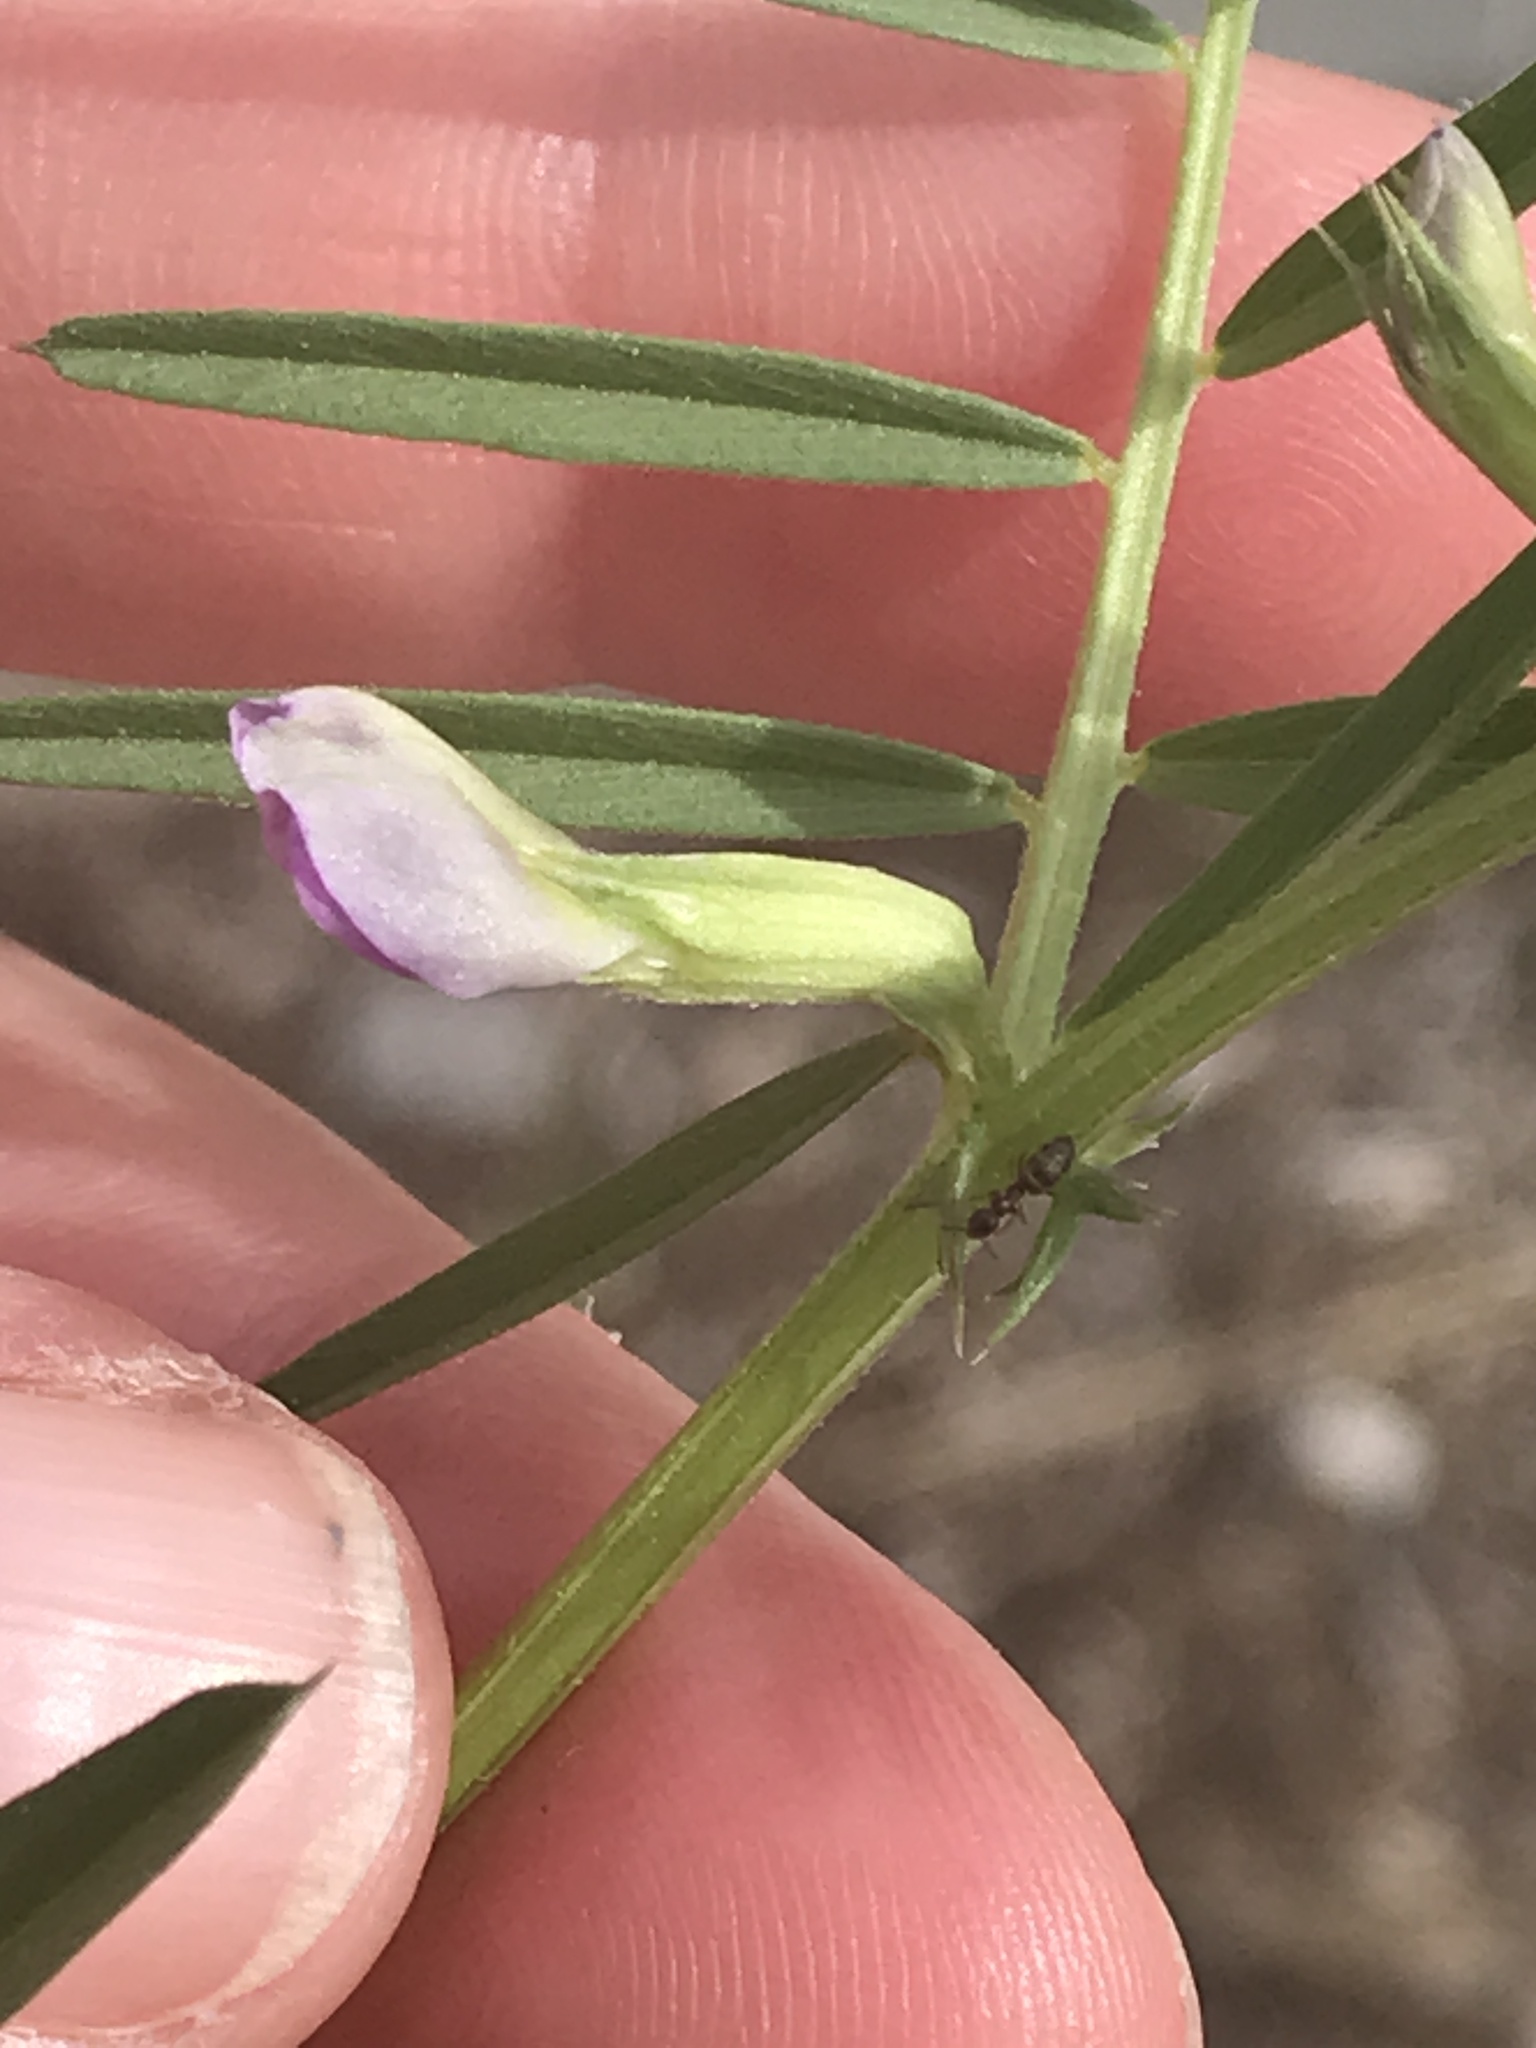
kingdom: Plantae
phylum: Tracheophyta
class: Magnoliopsida
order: Fabales
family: Fabaceae
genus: Vicia
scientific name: Vicia sativa
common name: Garden vetch
